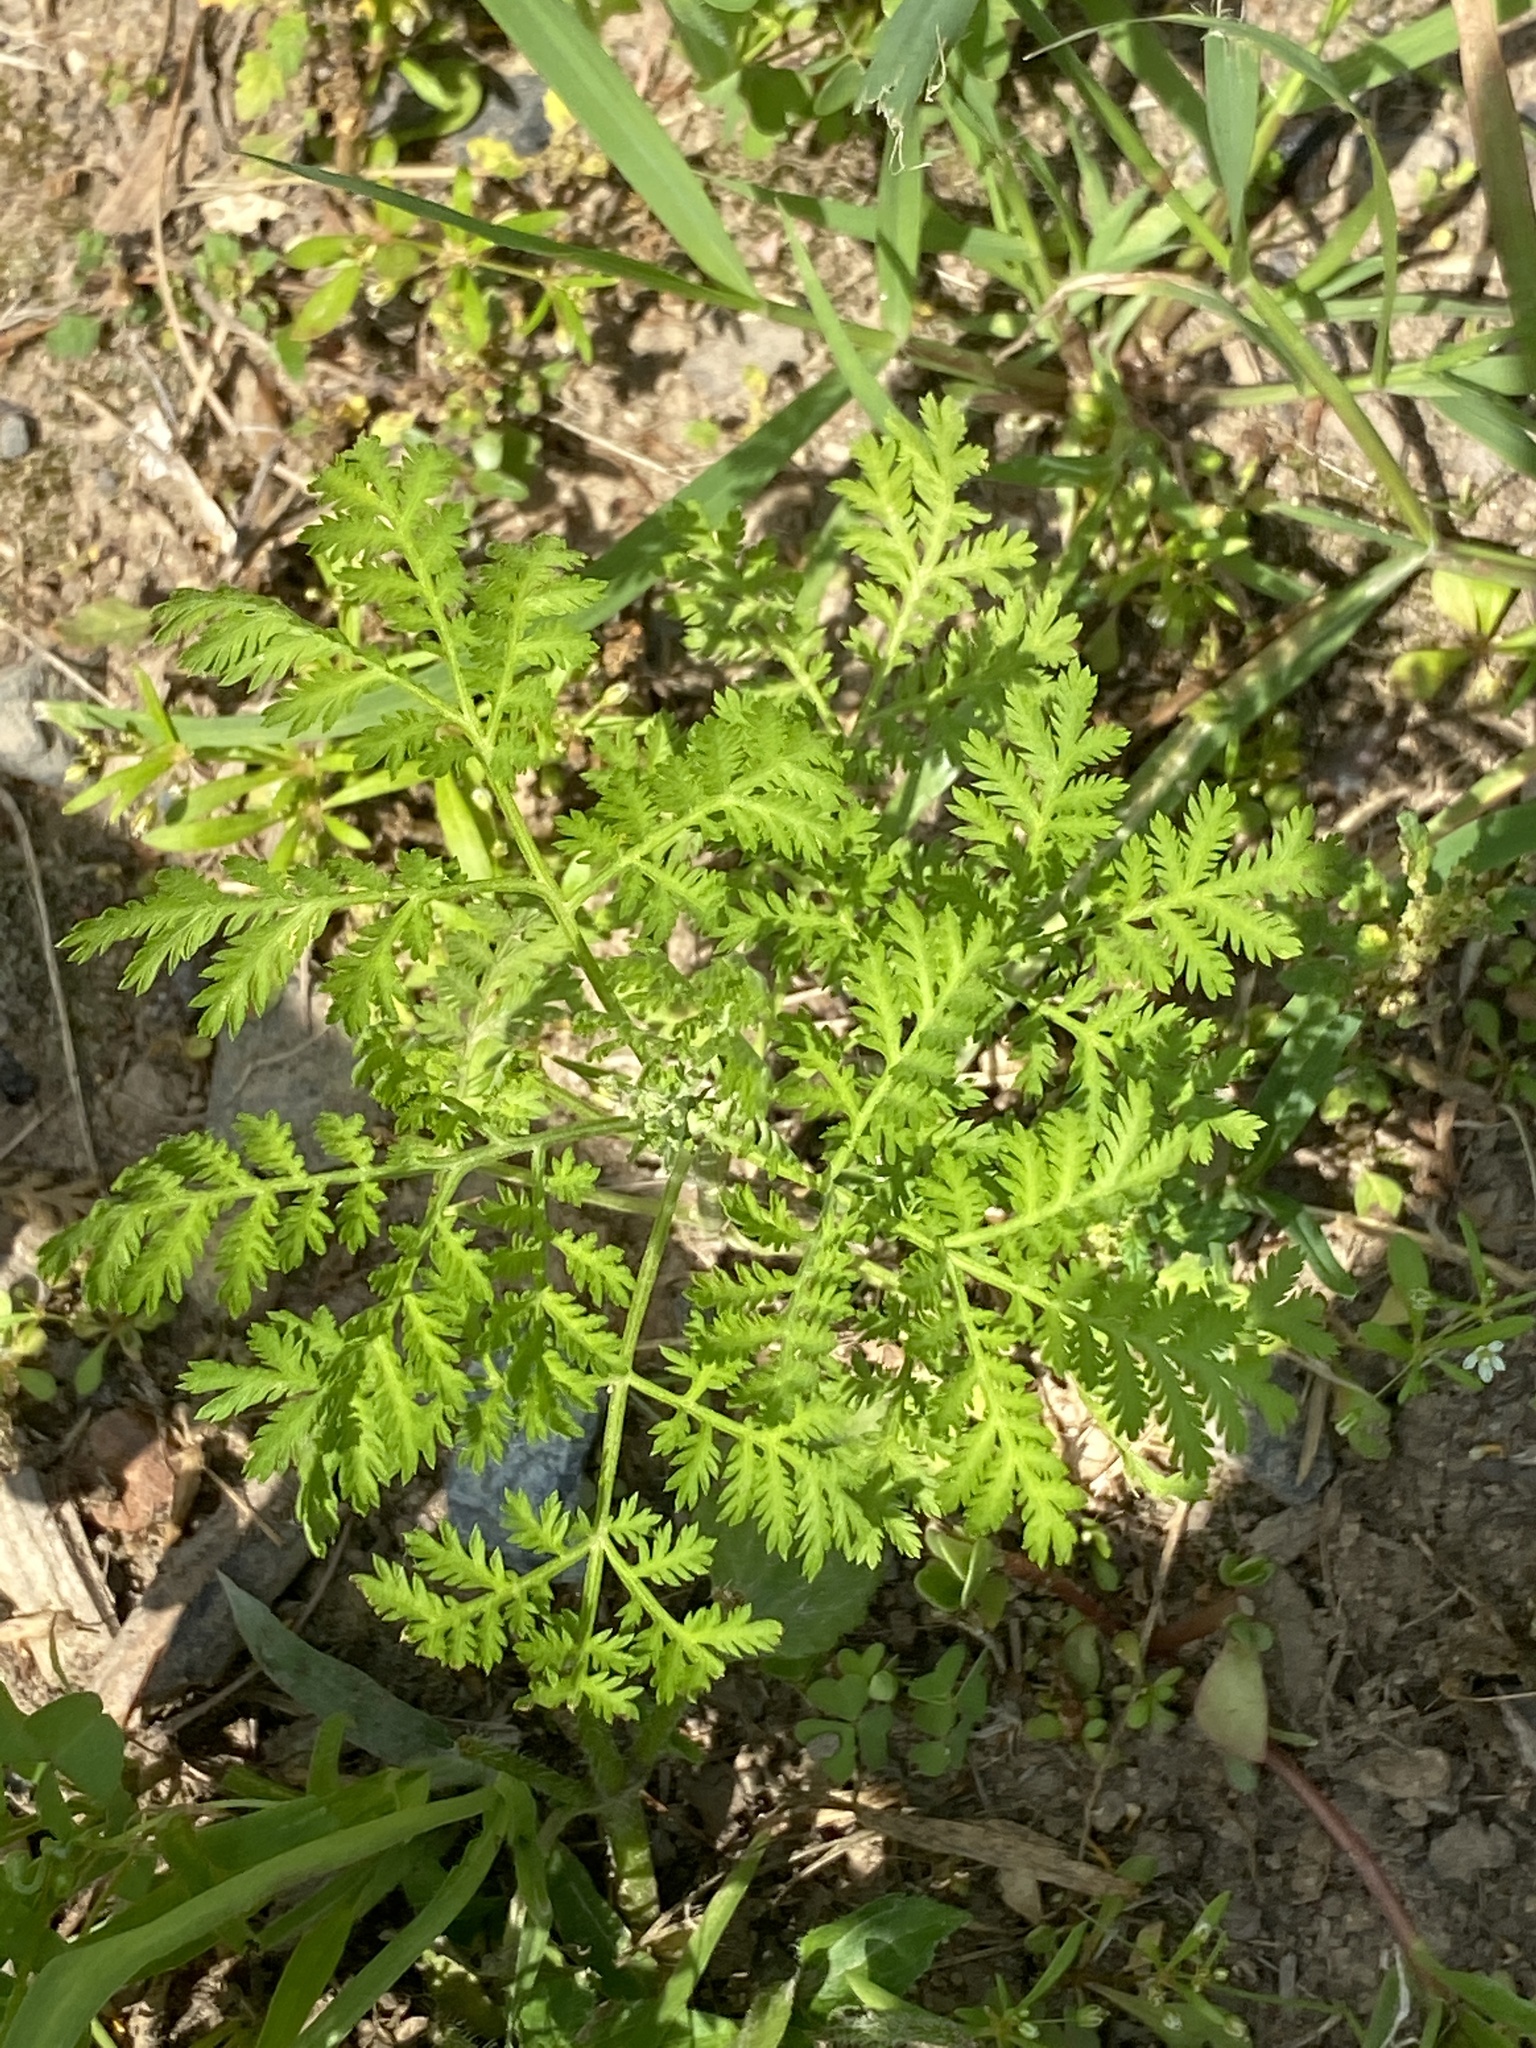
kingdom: Plantae
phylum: Tracheophyta
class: Magnoliopsida
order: Asterales
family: Asteraceae
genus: Artemisia
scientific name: Artemisia annua
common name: Sweet sagewort
